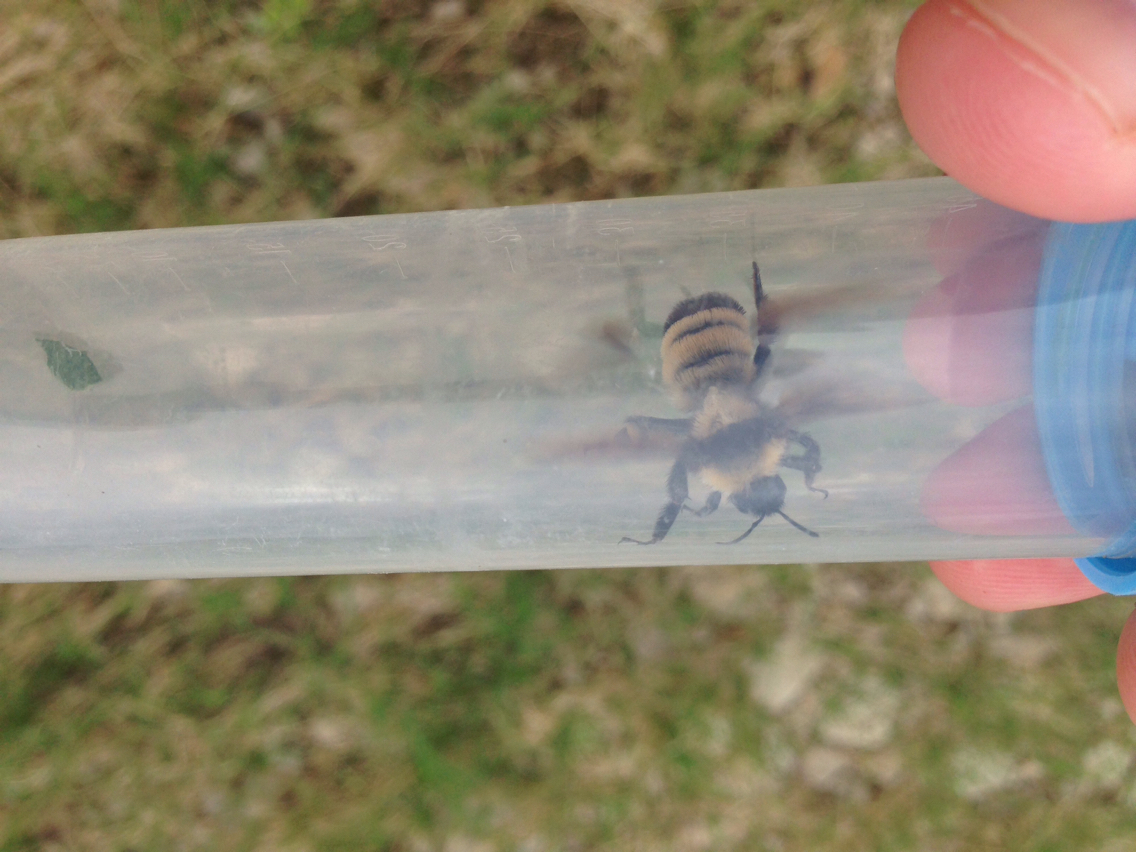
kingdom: Animalia
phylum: Arthropoda
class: Insecta
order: Hymenoptera
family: Apidae
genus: Bombus
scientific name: Bombus sonorus
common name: Sonoran bumble bee
